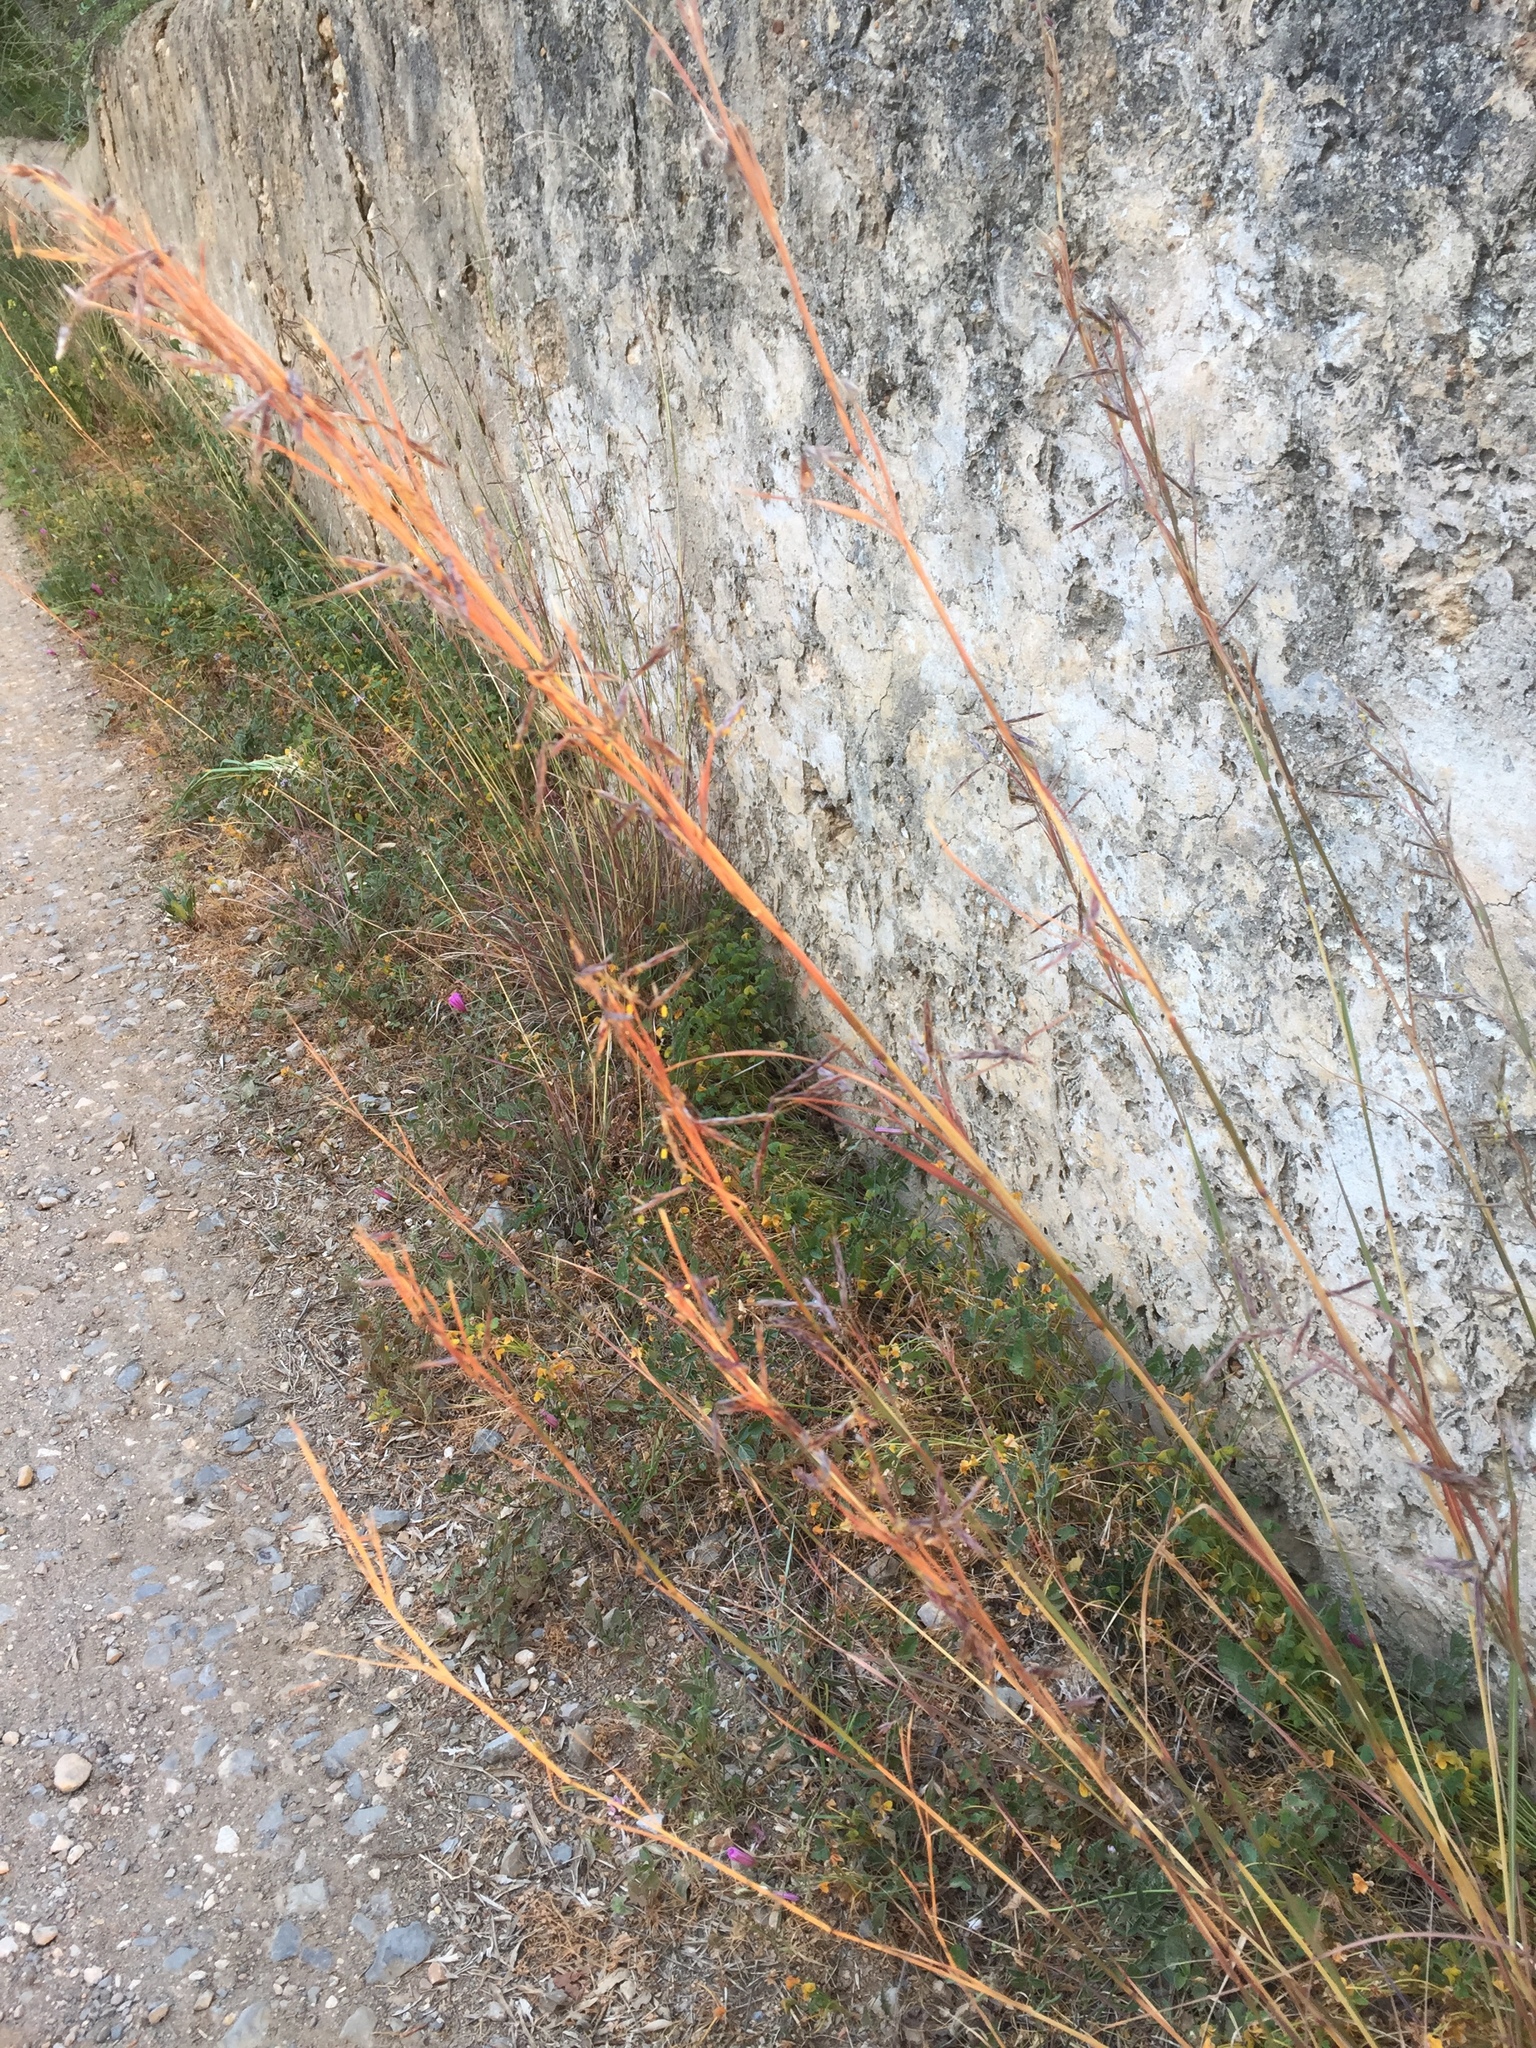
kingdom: Plantae
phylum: Tracheophyta
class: Liliopsida
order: Poales
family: Poaceae
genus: Hyparrhenia
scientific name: Hyparrhenia hirta
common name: Thatching grass
